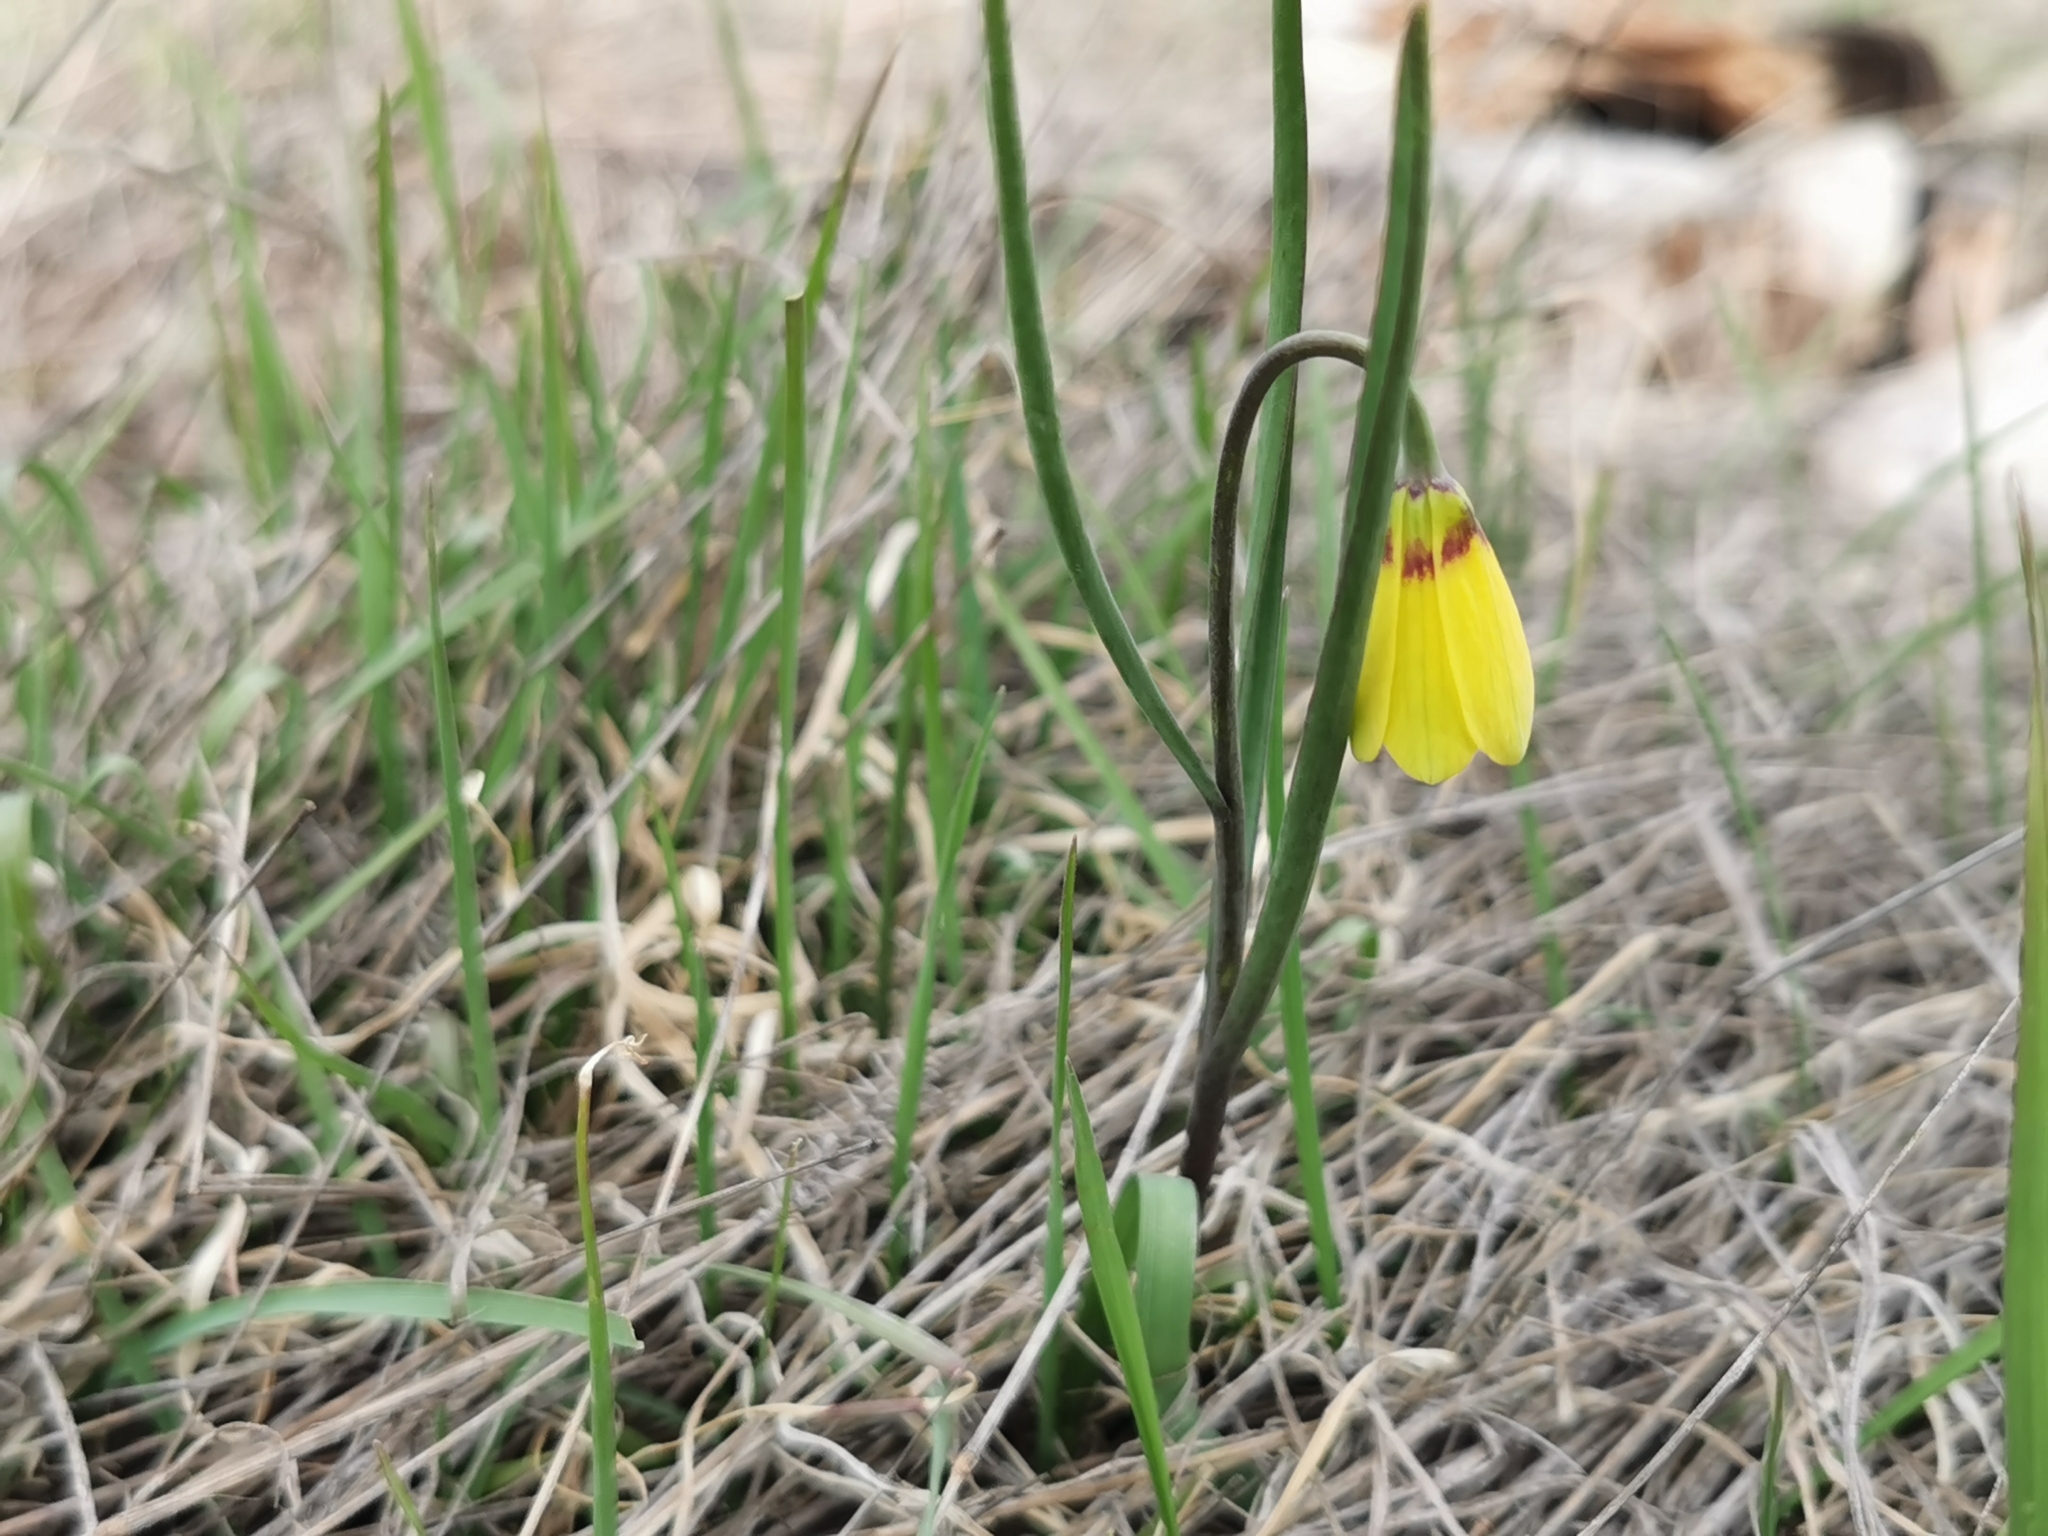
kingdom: Plantae
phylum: Tracheophyta
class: Liliopsida
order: Liliales
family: Liliaceae
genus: Fritillaria
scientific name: Fritillaria pudica
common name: Yellow fritillary
